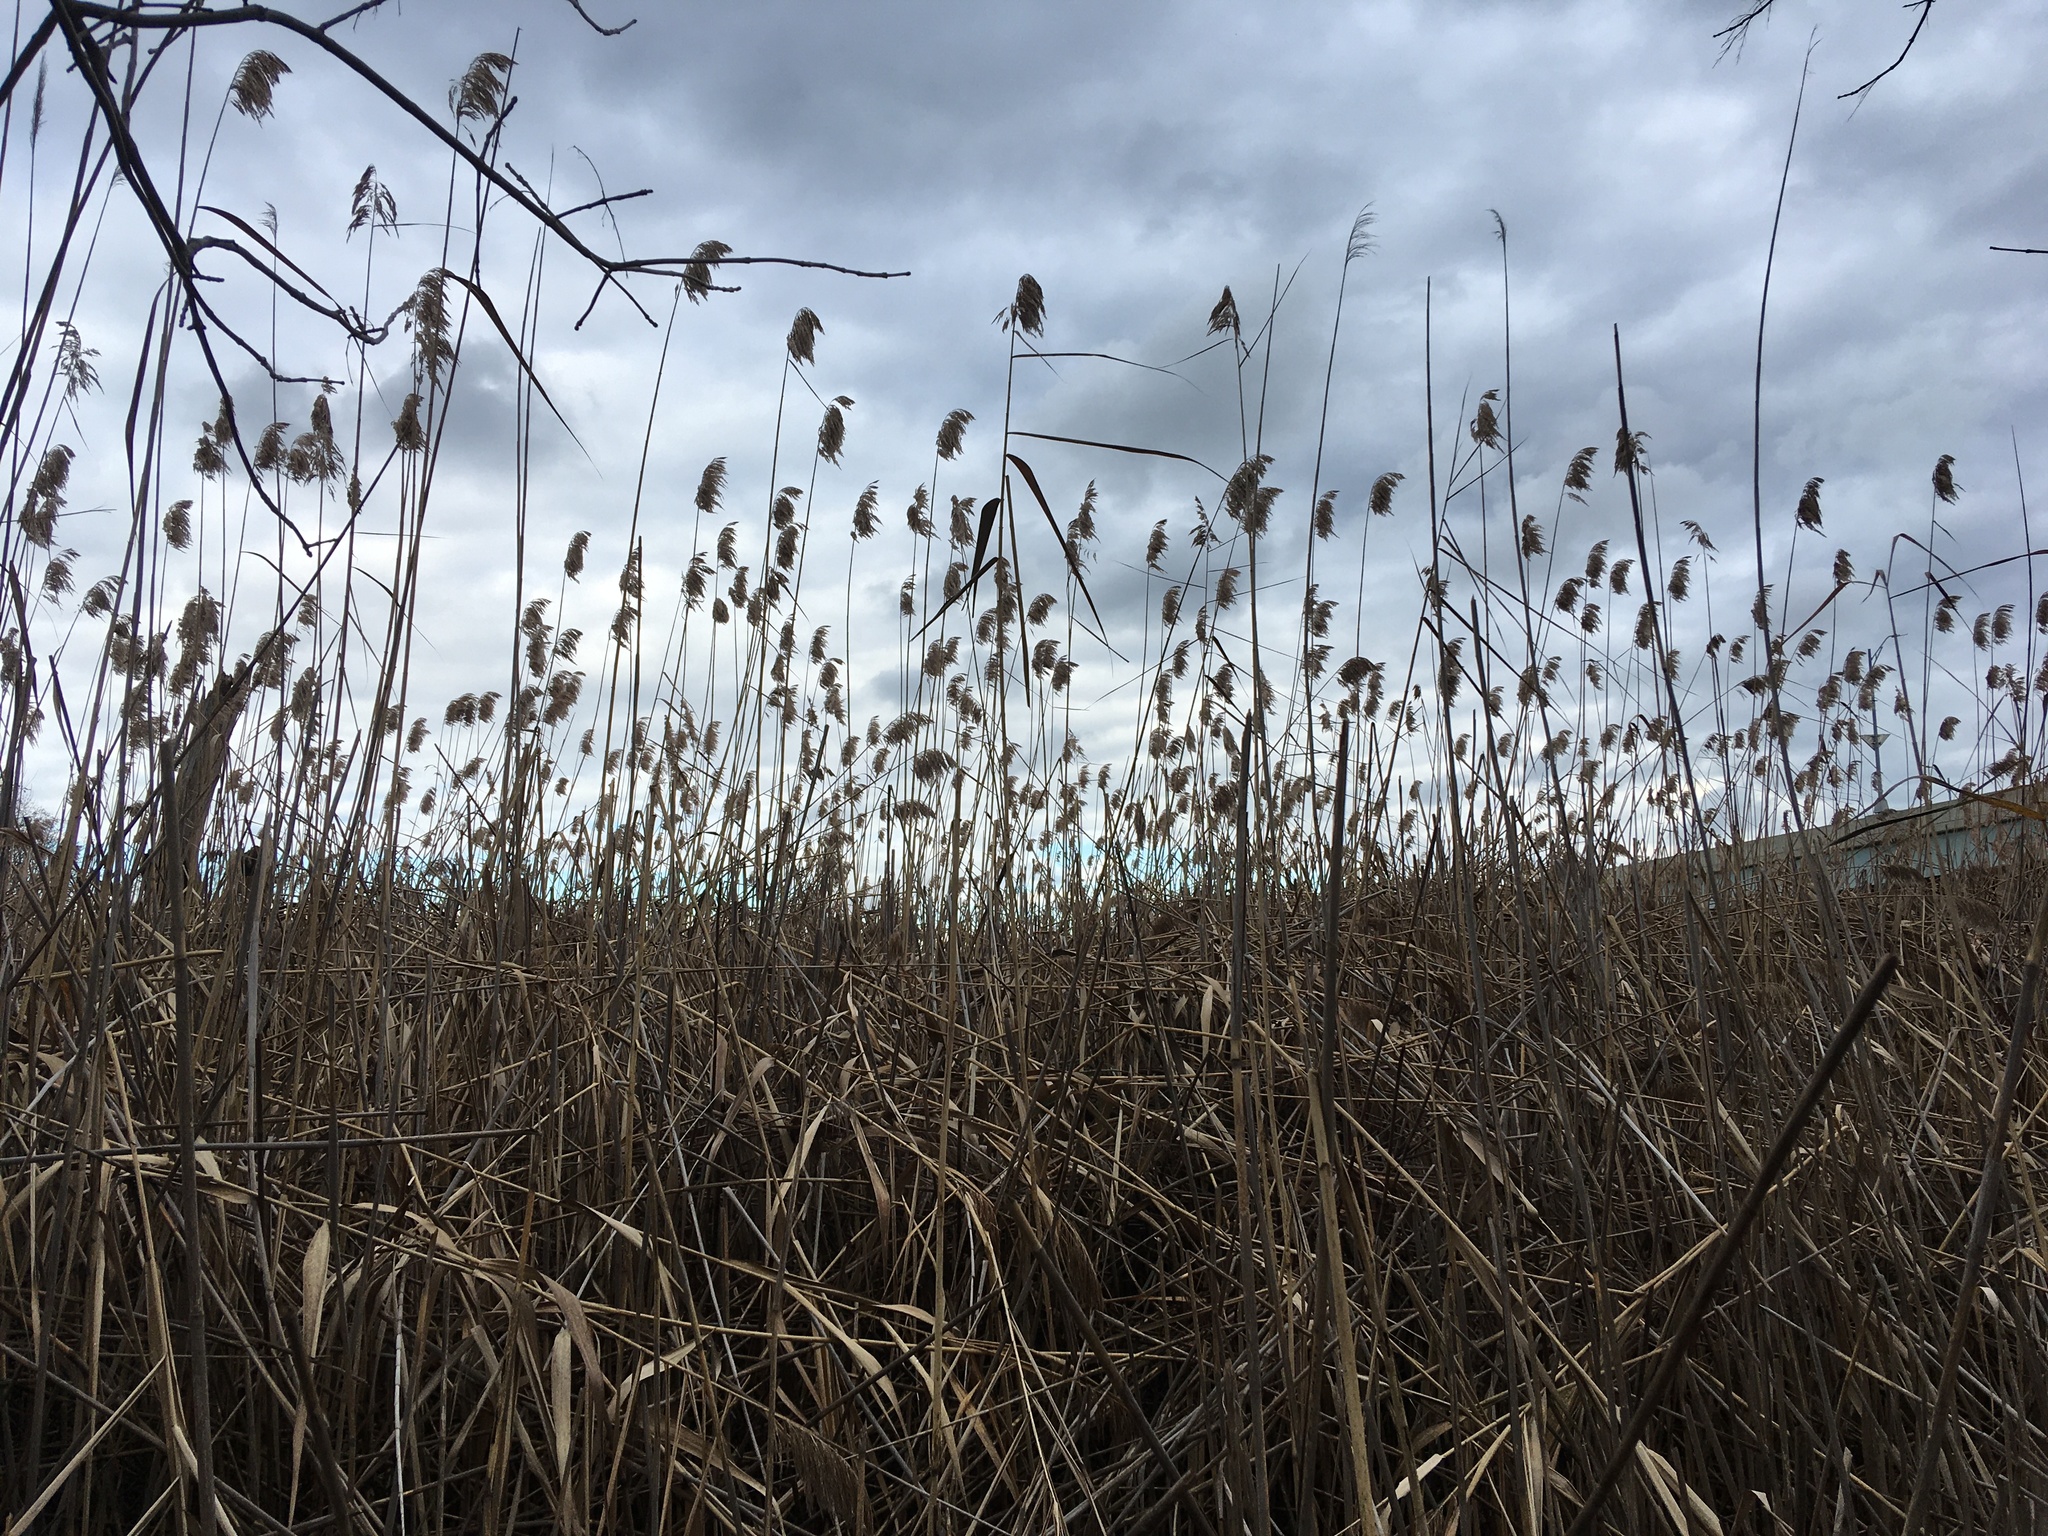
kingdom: Plantae
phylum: Tracheophyta
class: Liliopsida
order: Poales
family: Poaceae
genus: Phragmites
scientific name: Phragmites australis
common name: Common reed
